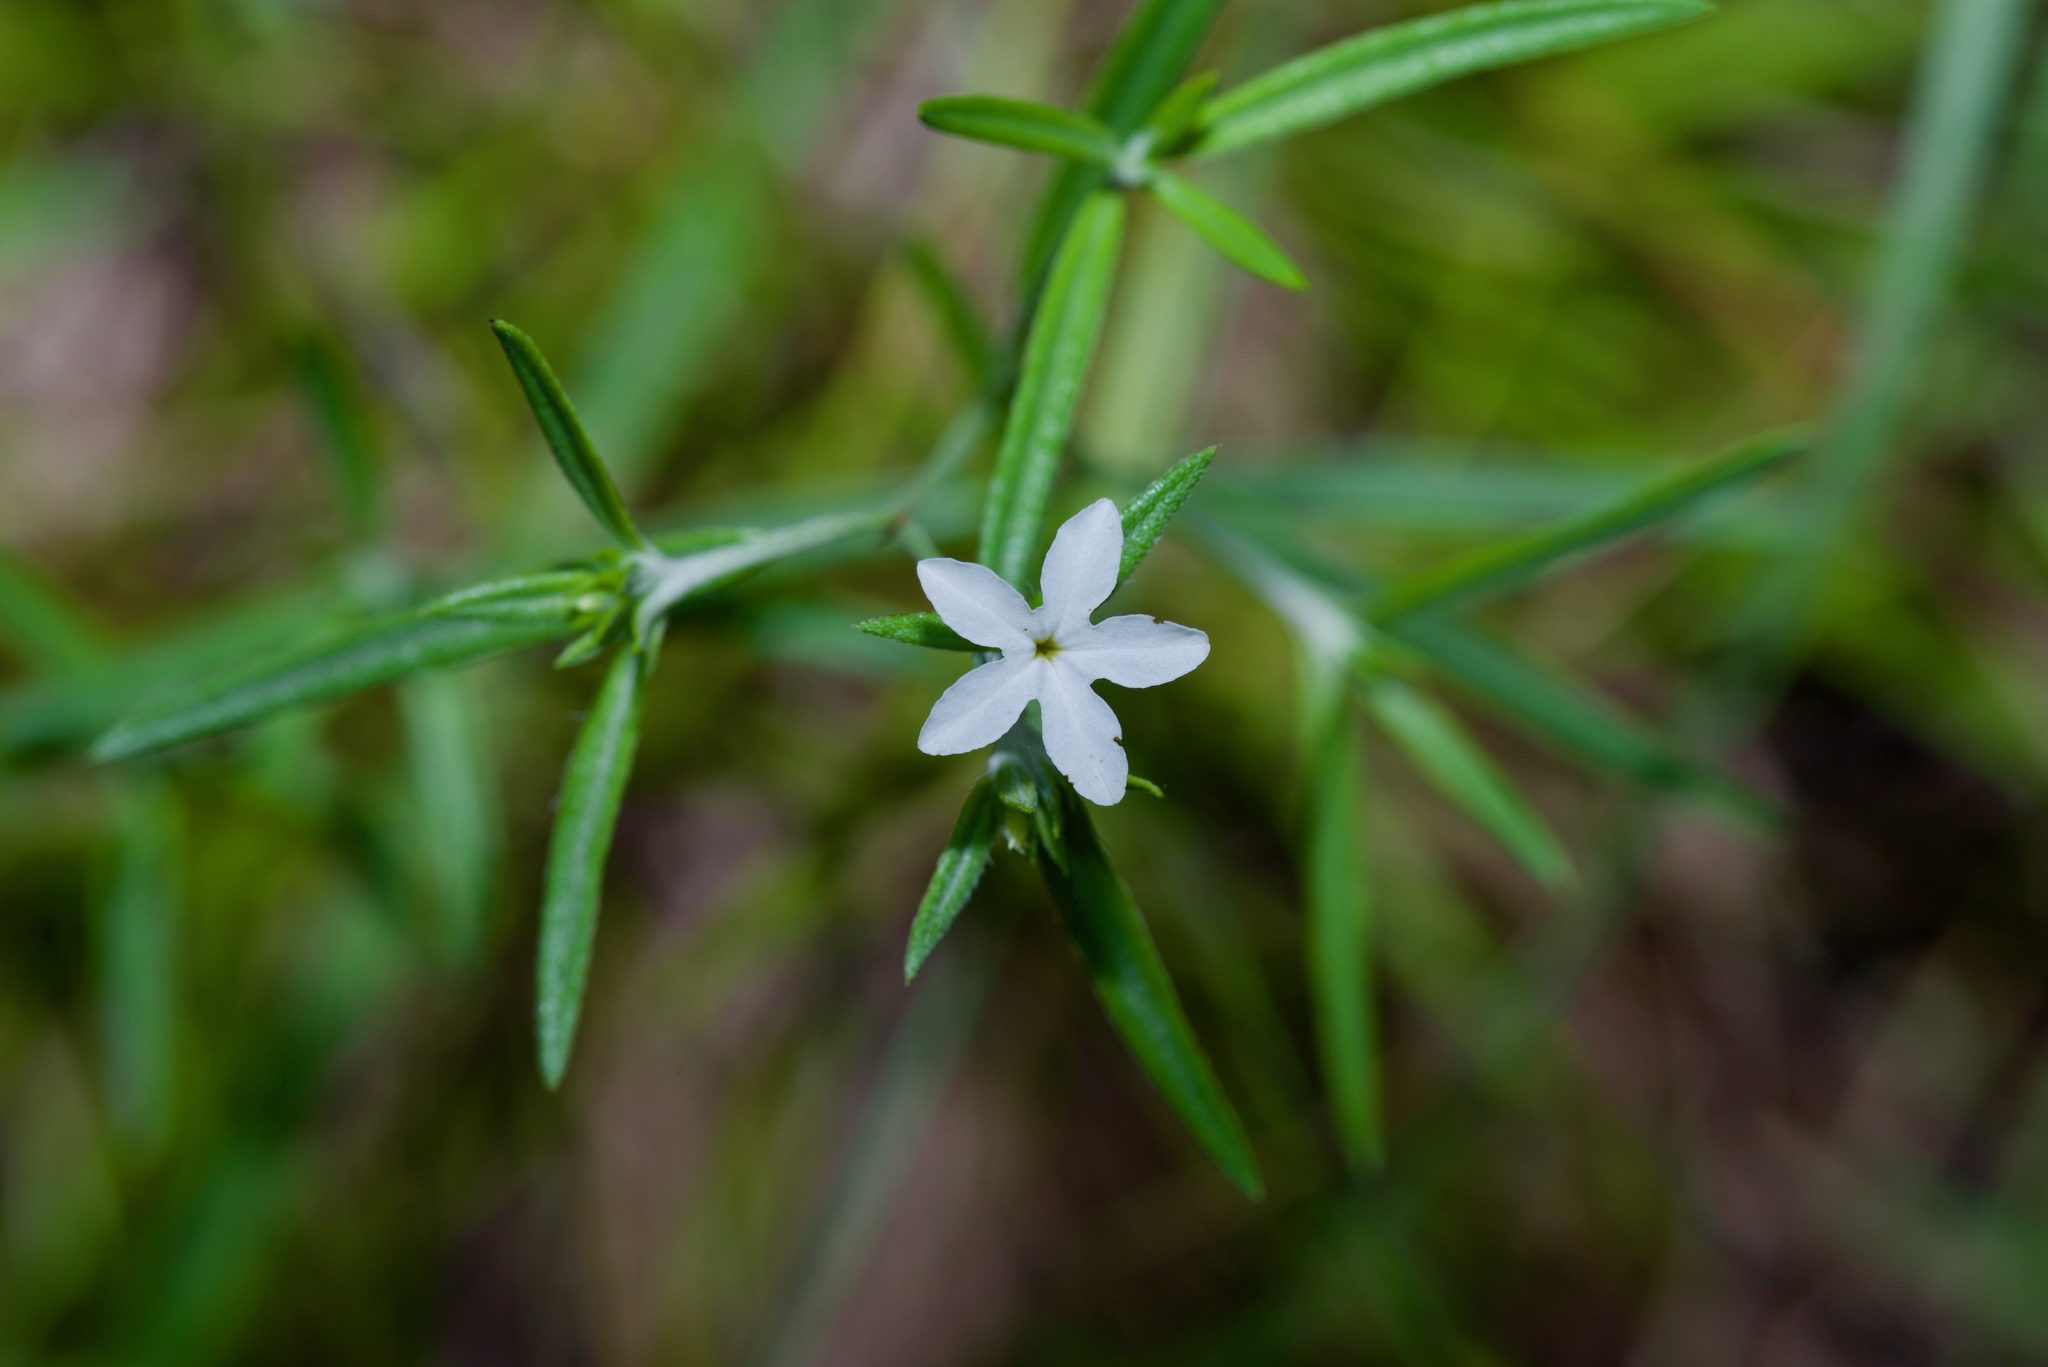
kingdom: Plantae
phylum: Tracheophyta
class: Magnoliopsida
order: Boraginales
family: Heliotropiaceae
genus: Euploca
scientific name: Euploca tenella
